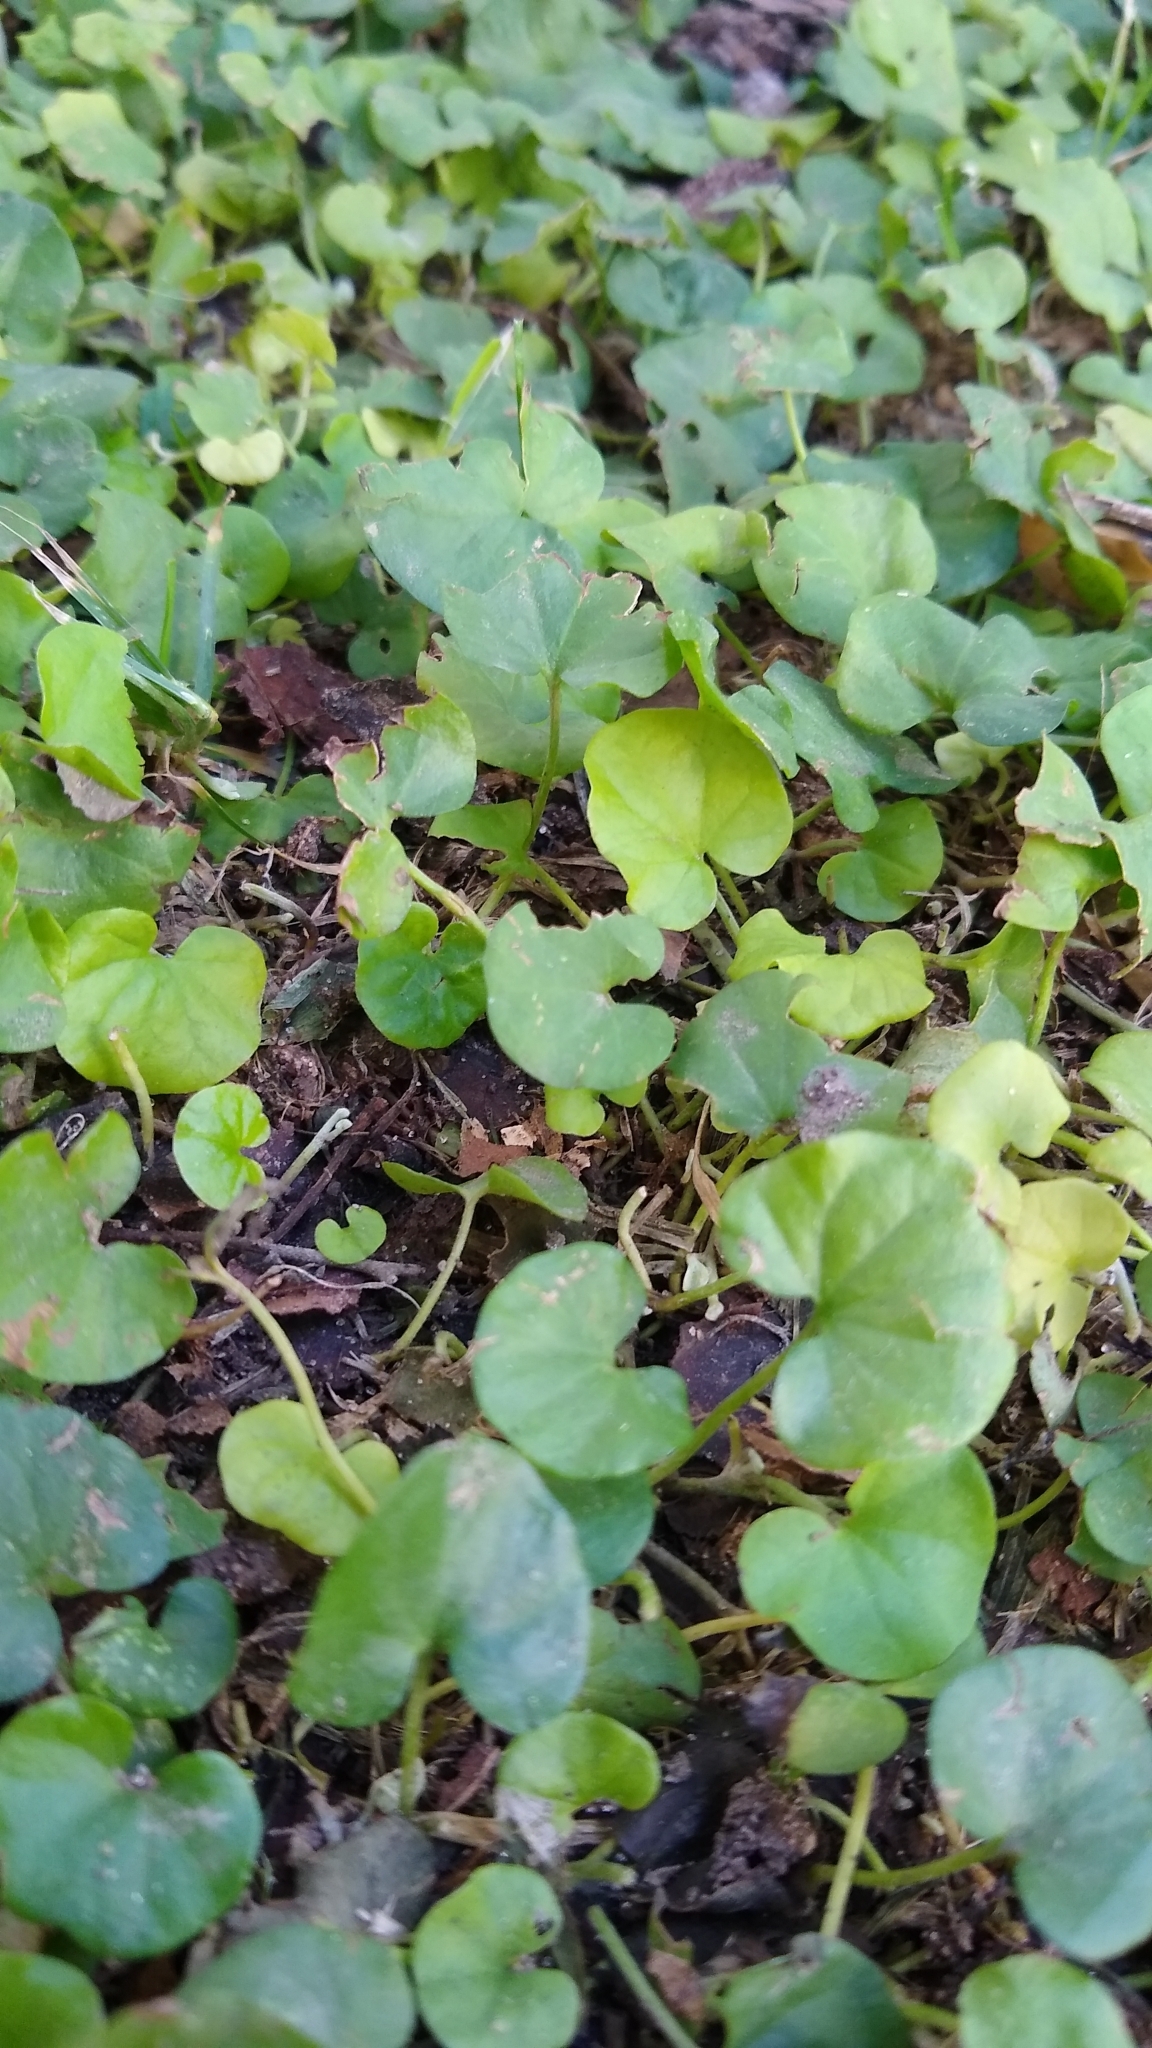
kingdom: Plantae
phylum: Tracheophyta
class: Magnoliopsida
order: Solanales
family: Convolvulaceae
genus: Dichondra
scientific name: Dichondra repens
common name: Kidneyweed
